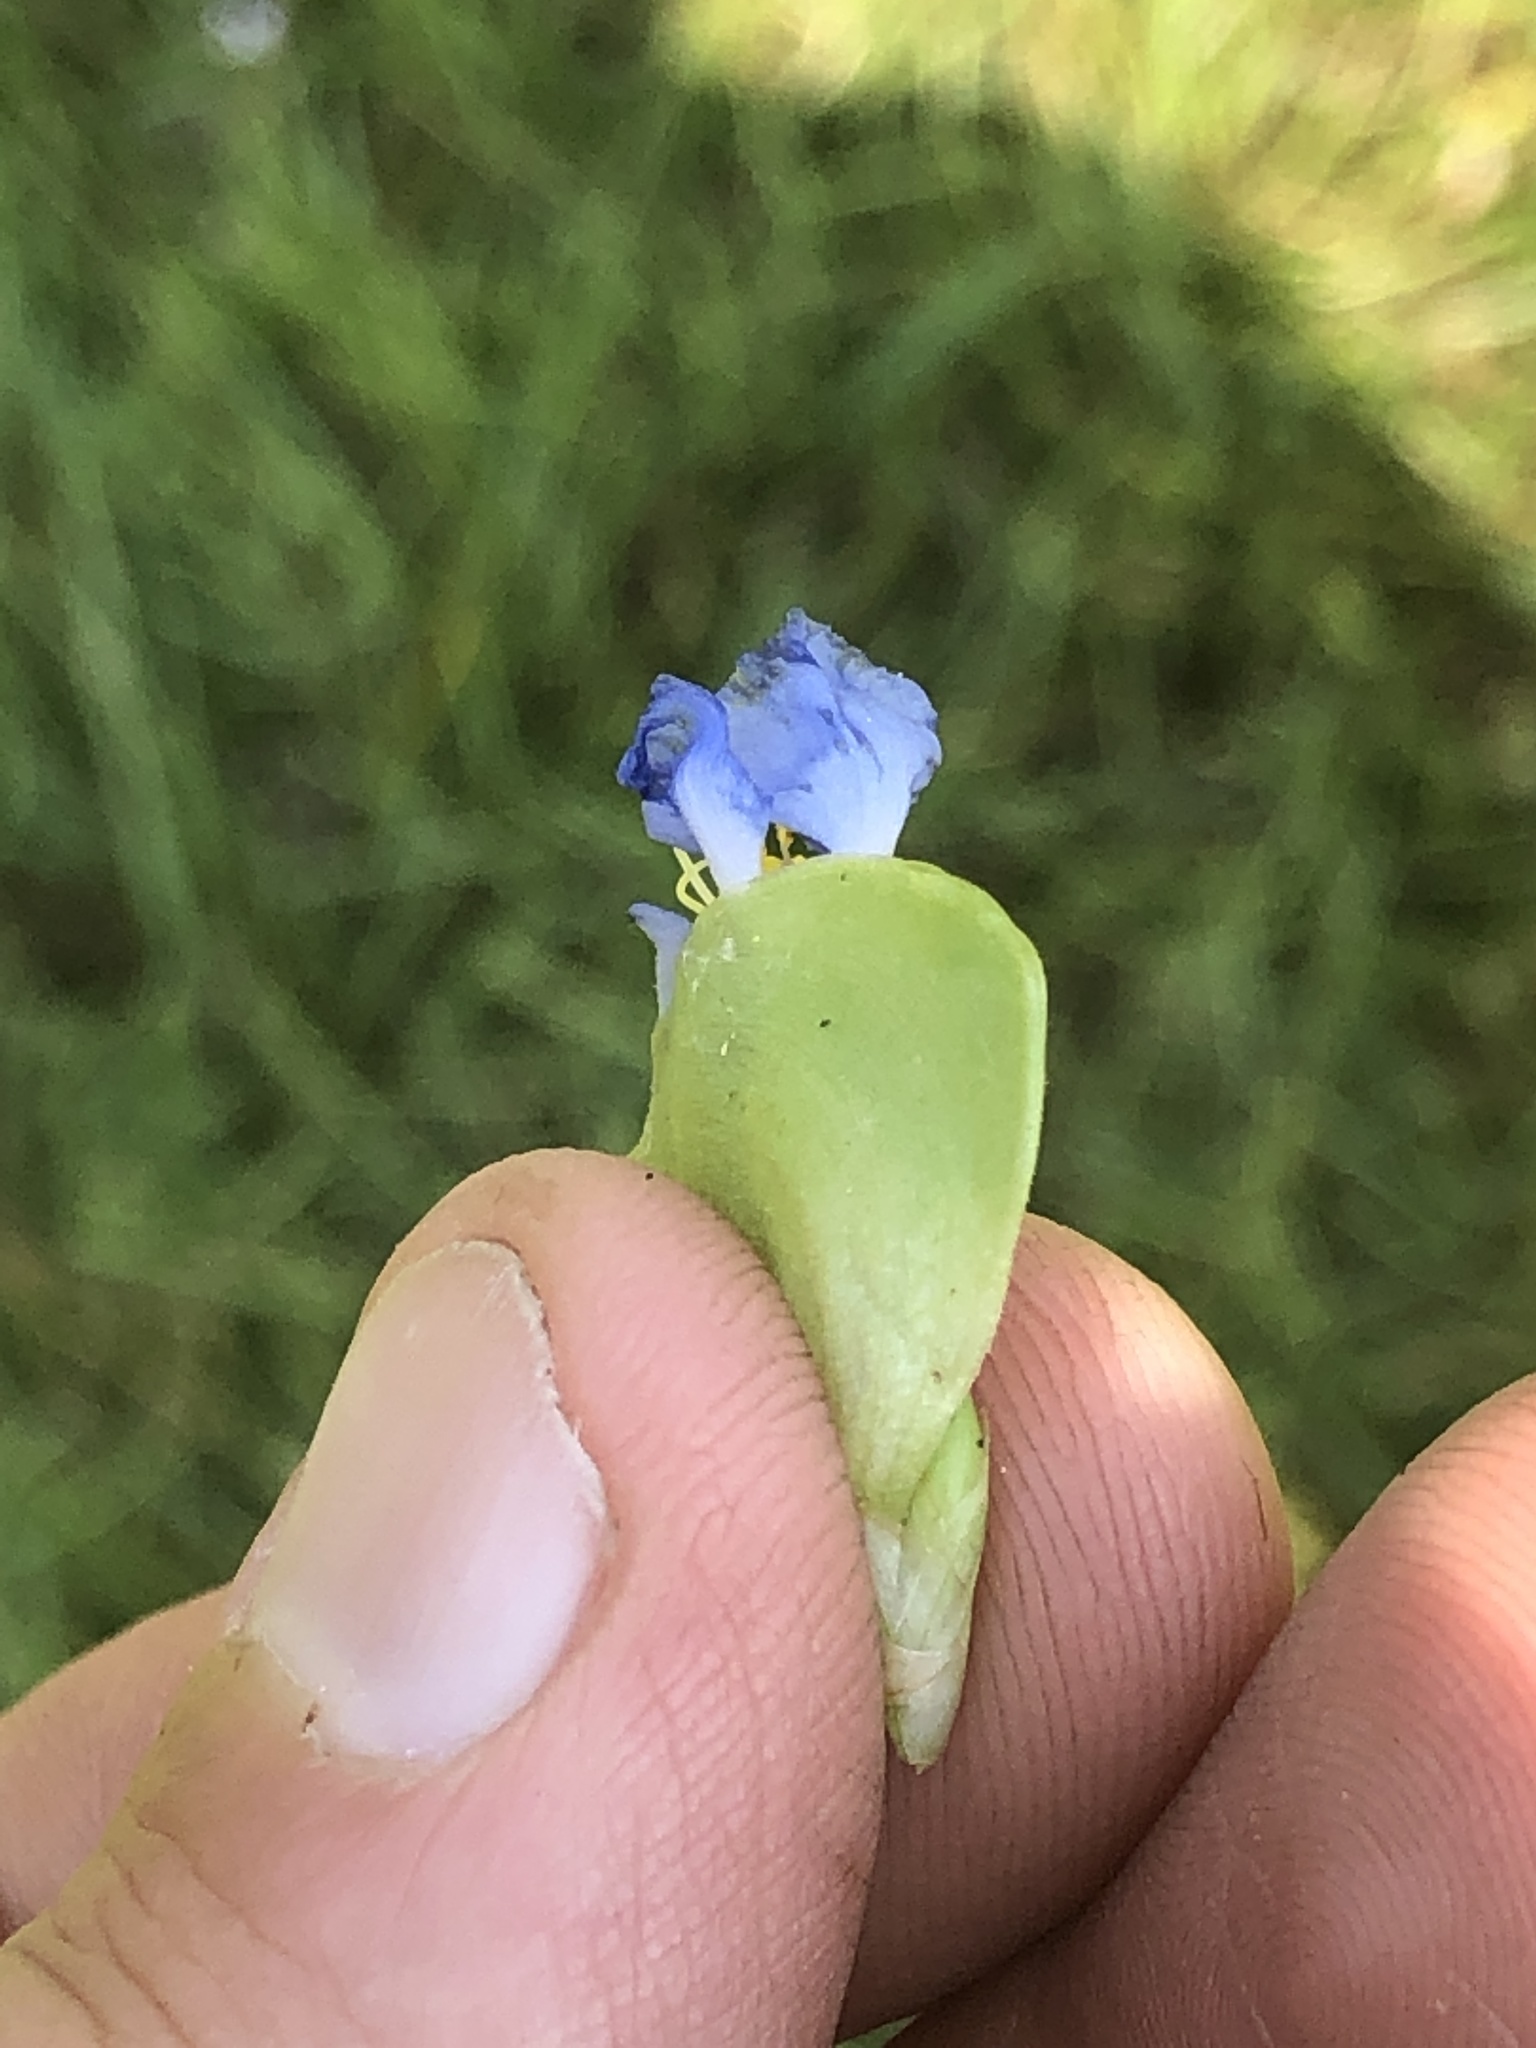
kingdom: Plantae
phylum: Tracheophyta
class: Liliopsida
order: Commelinales
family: Commelinaceae
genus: Commelina
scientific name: Commelina virginica
